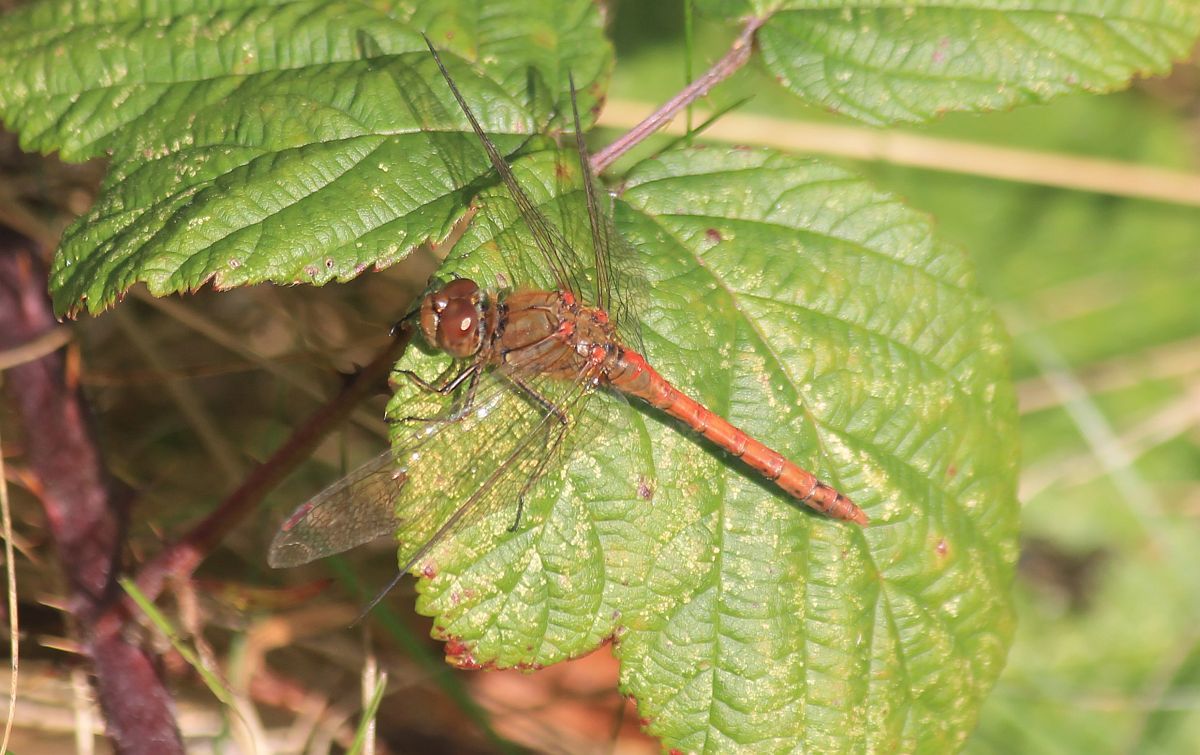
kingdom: Animalia
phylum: Arthropoda
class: Insecta
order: Odonata
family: Libellulidae
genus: Sympetrum
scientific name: Sympetrum striolatum
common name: Common darter
